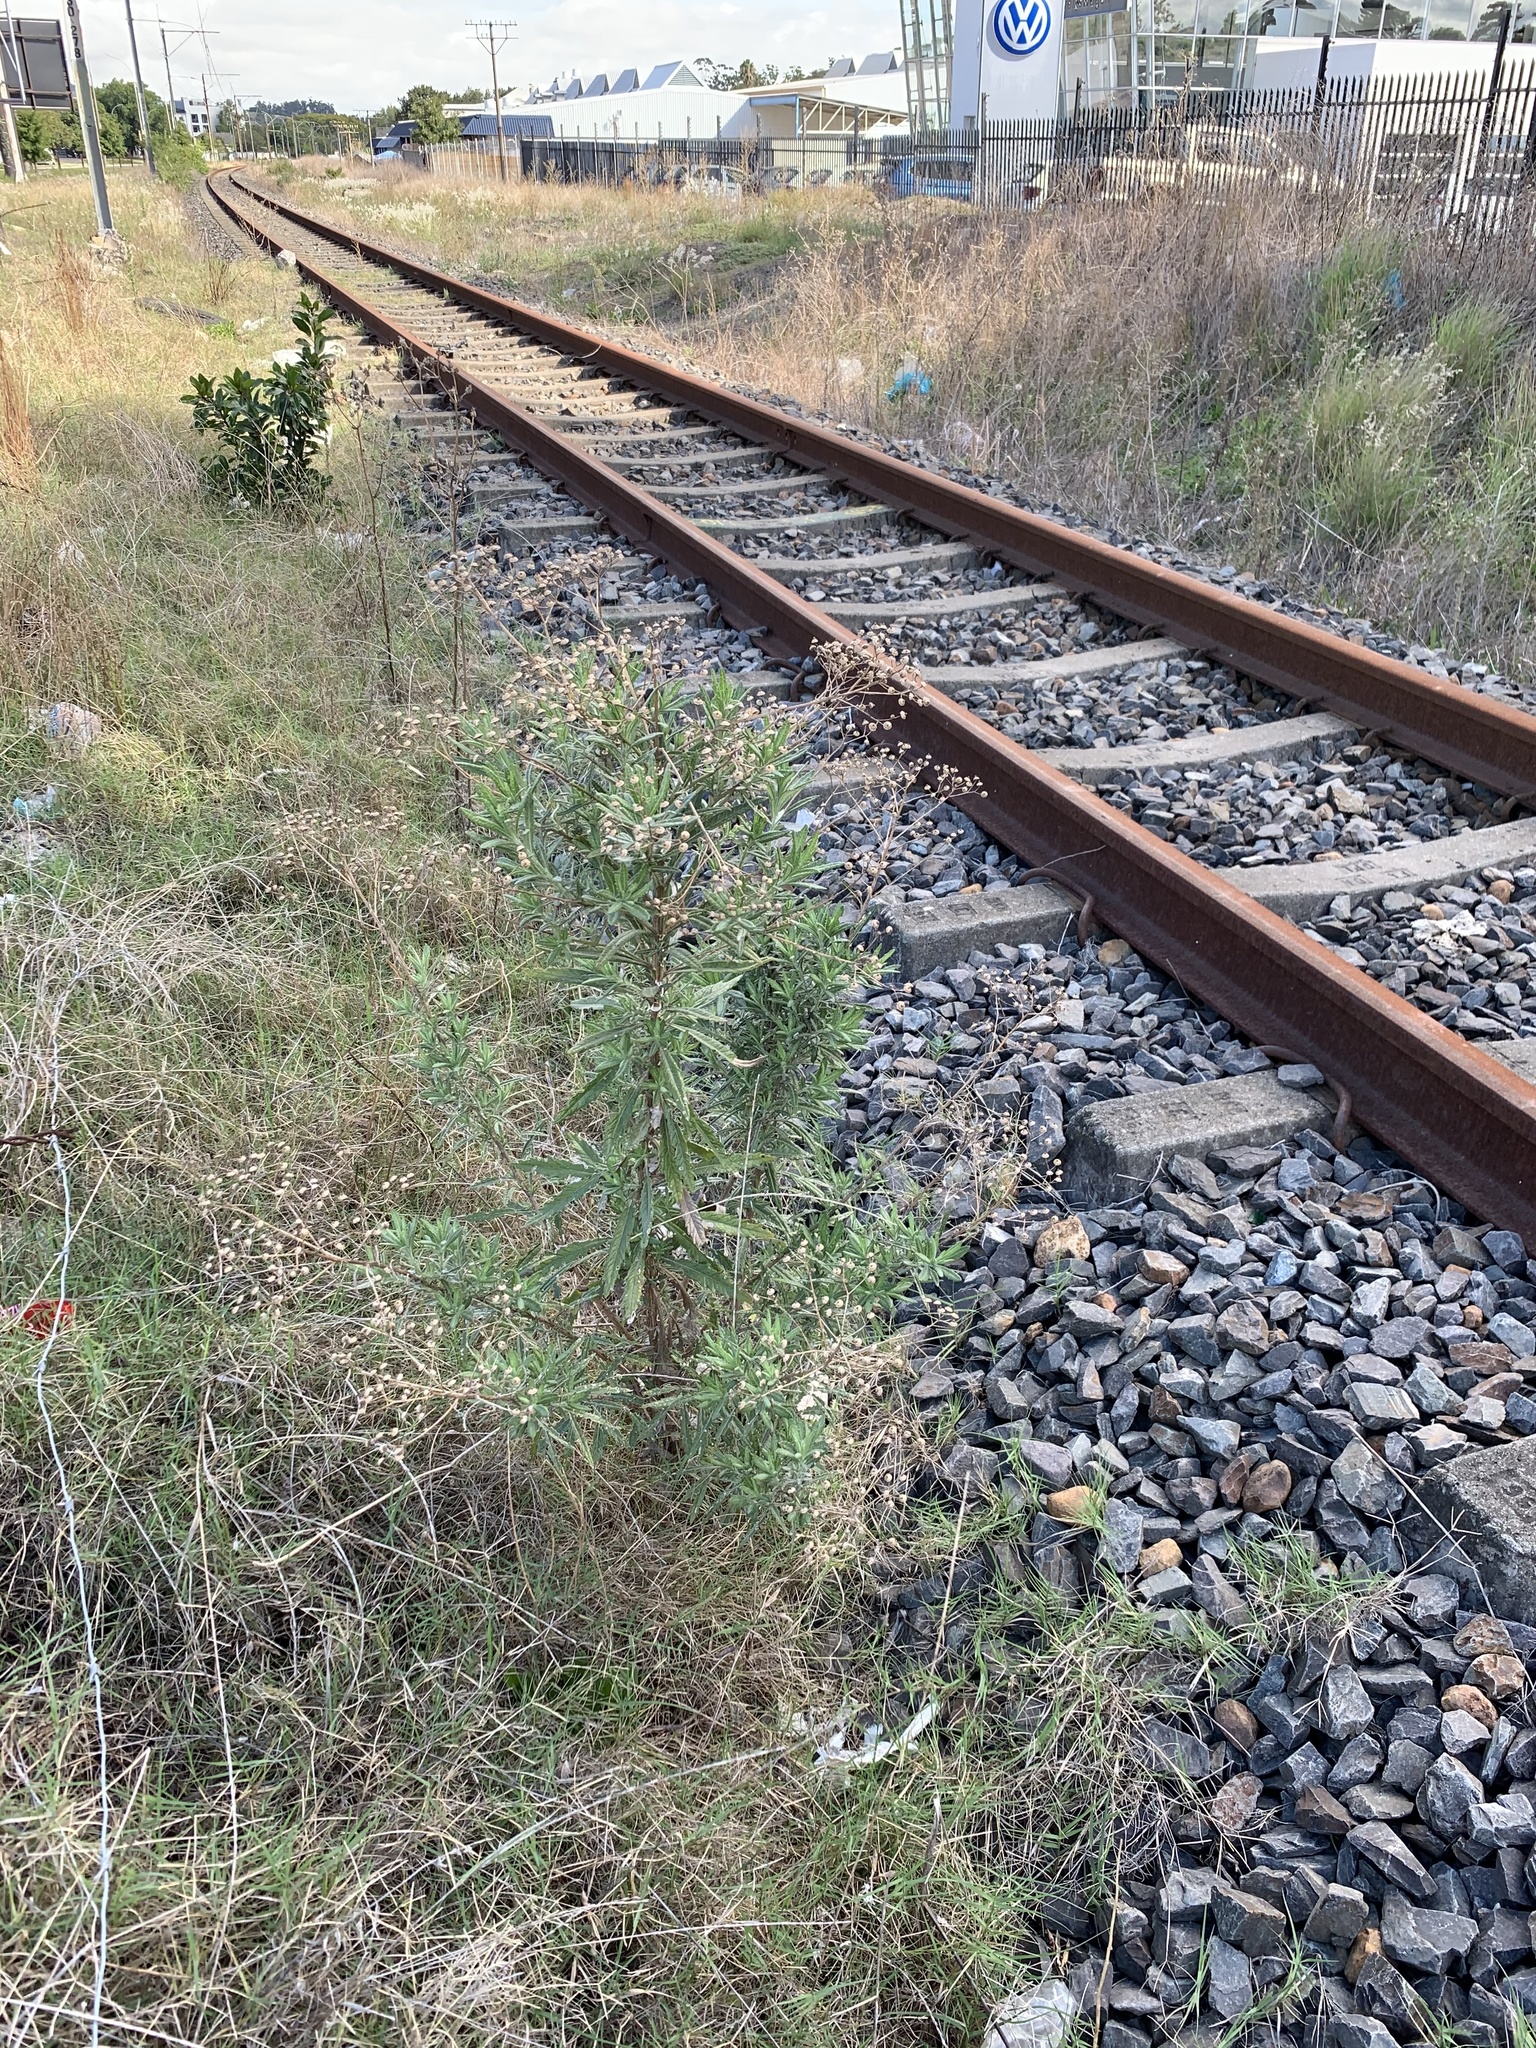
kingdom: Plantae
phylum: Tracheophyta
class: Magnoliopsida
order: Asterales
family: Asteraceae
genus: Senecio
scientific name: Senecio pterophorus
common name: Shoddy ragwort
